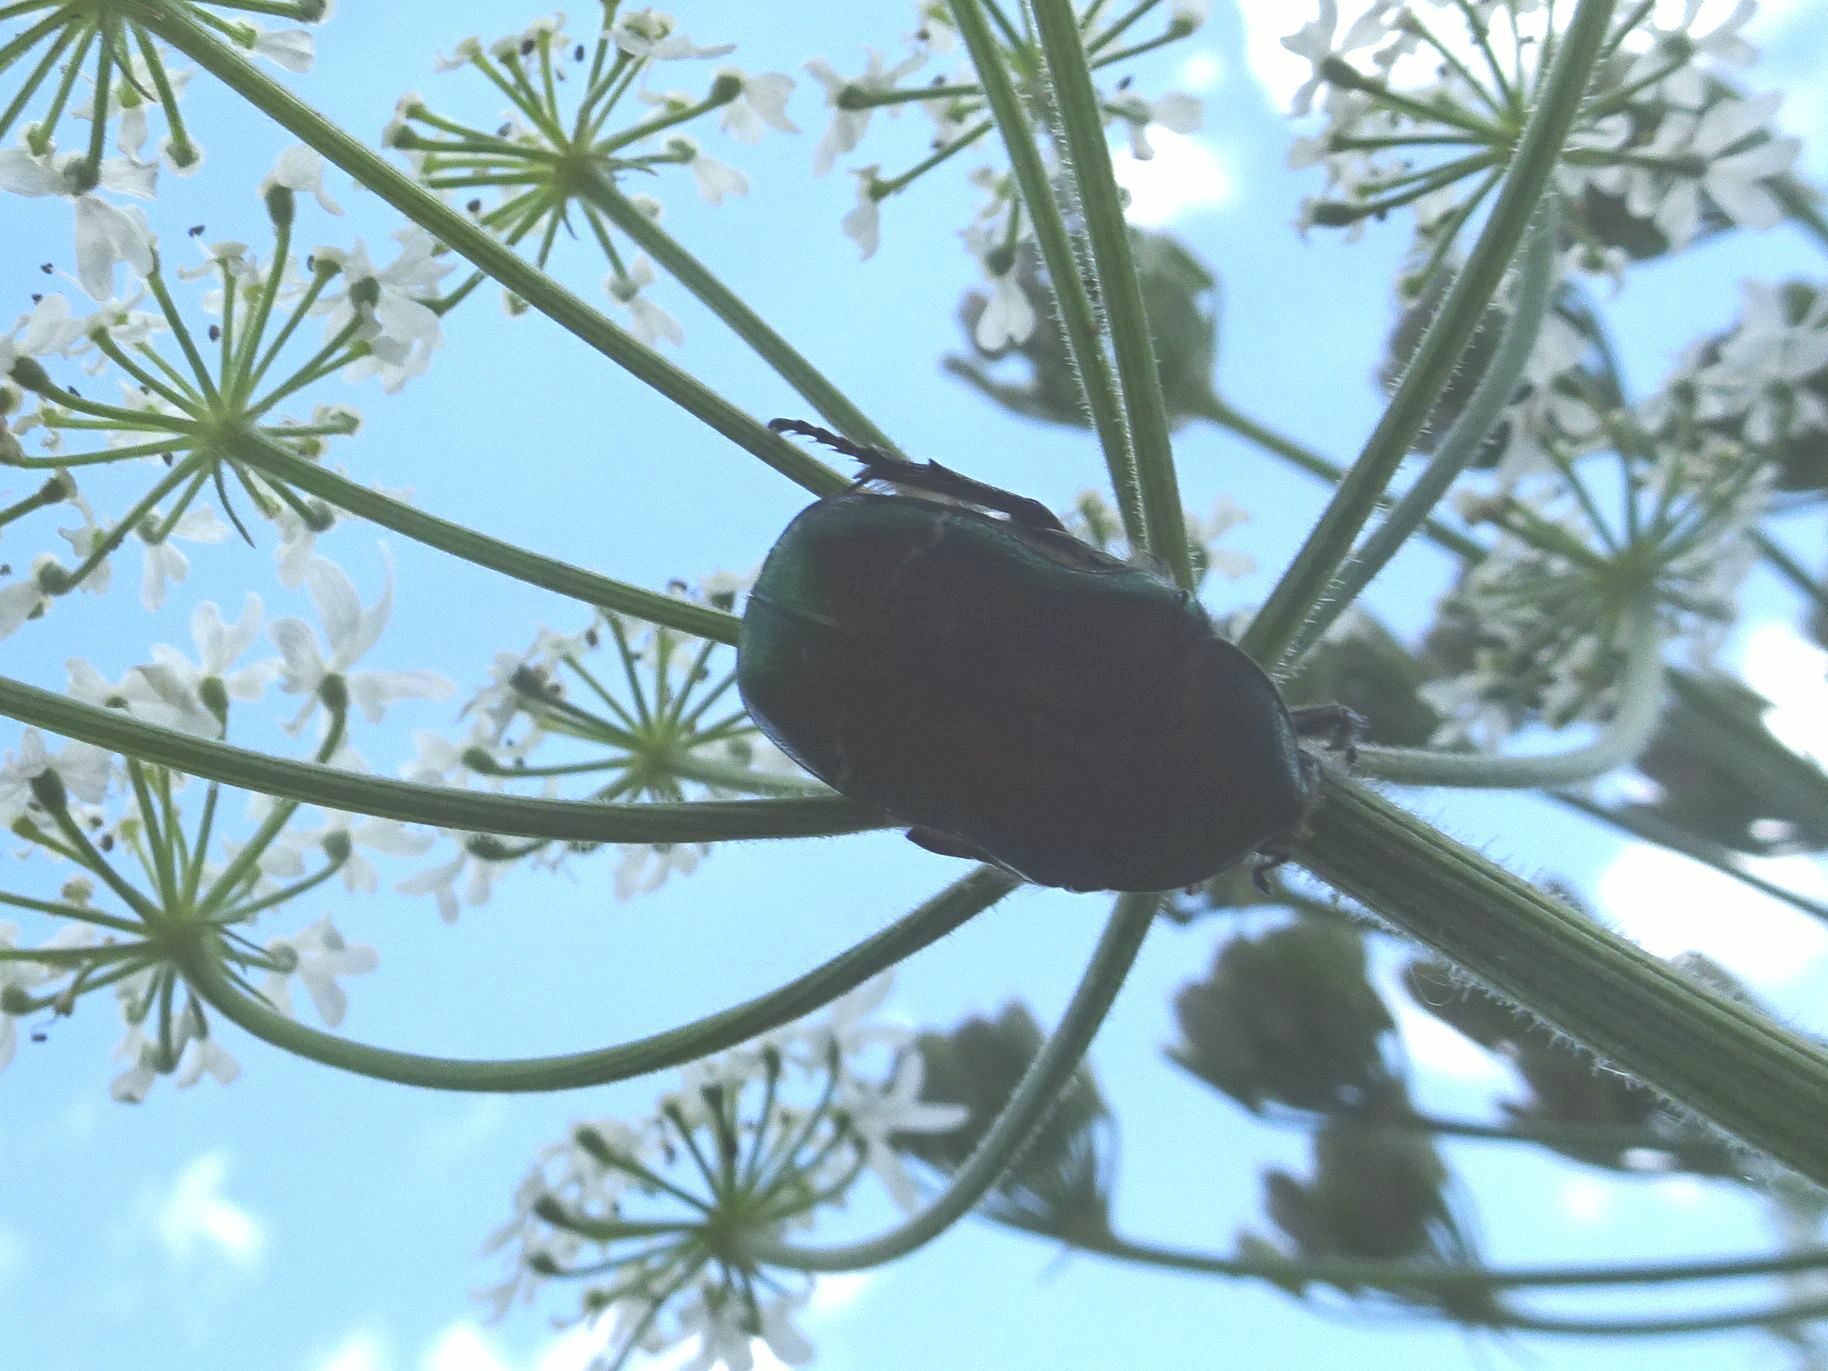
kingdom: Animalia
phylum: Arthropoda
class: Insecta
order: Coleoptera
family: Scarabaeidae
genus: Cetonia
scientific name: Cetonia aurata
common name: Rose chafer
